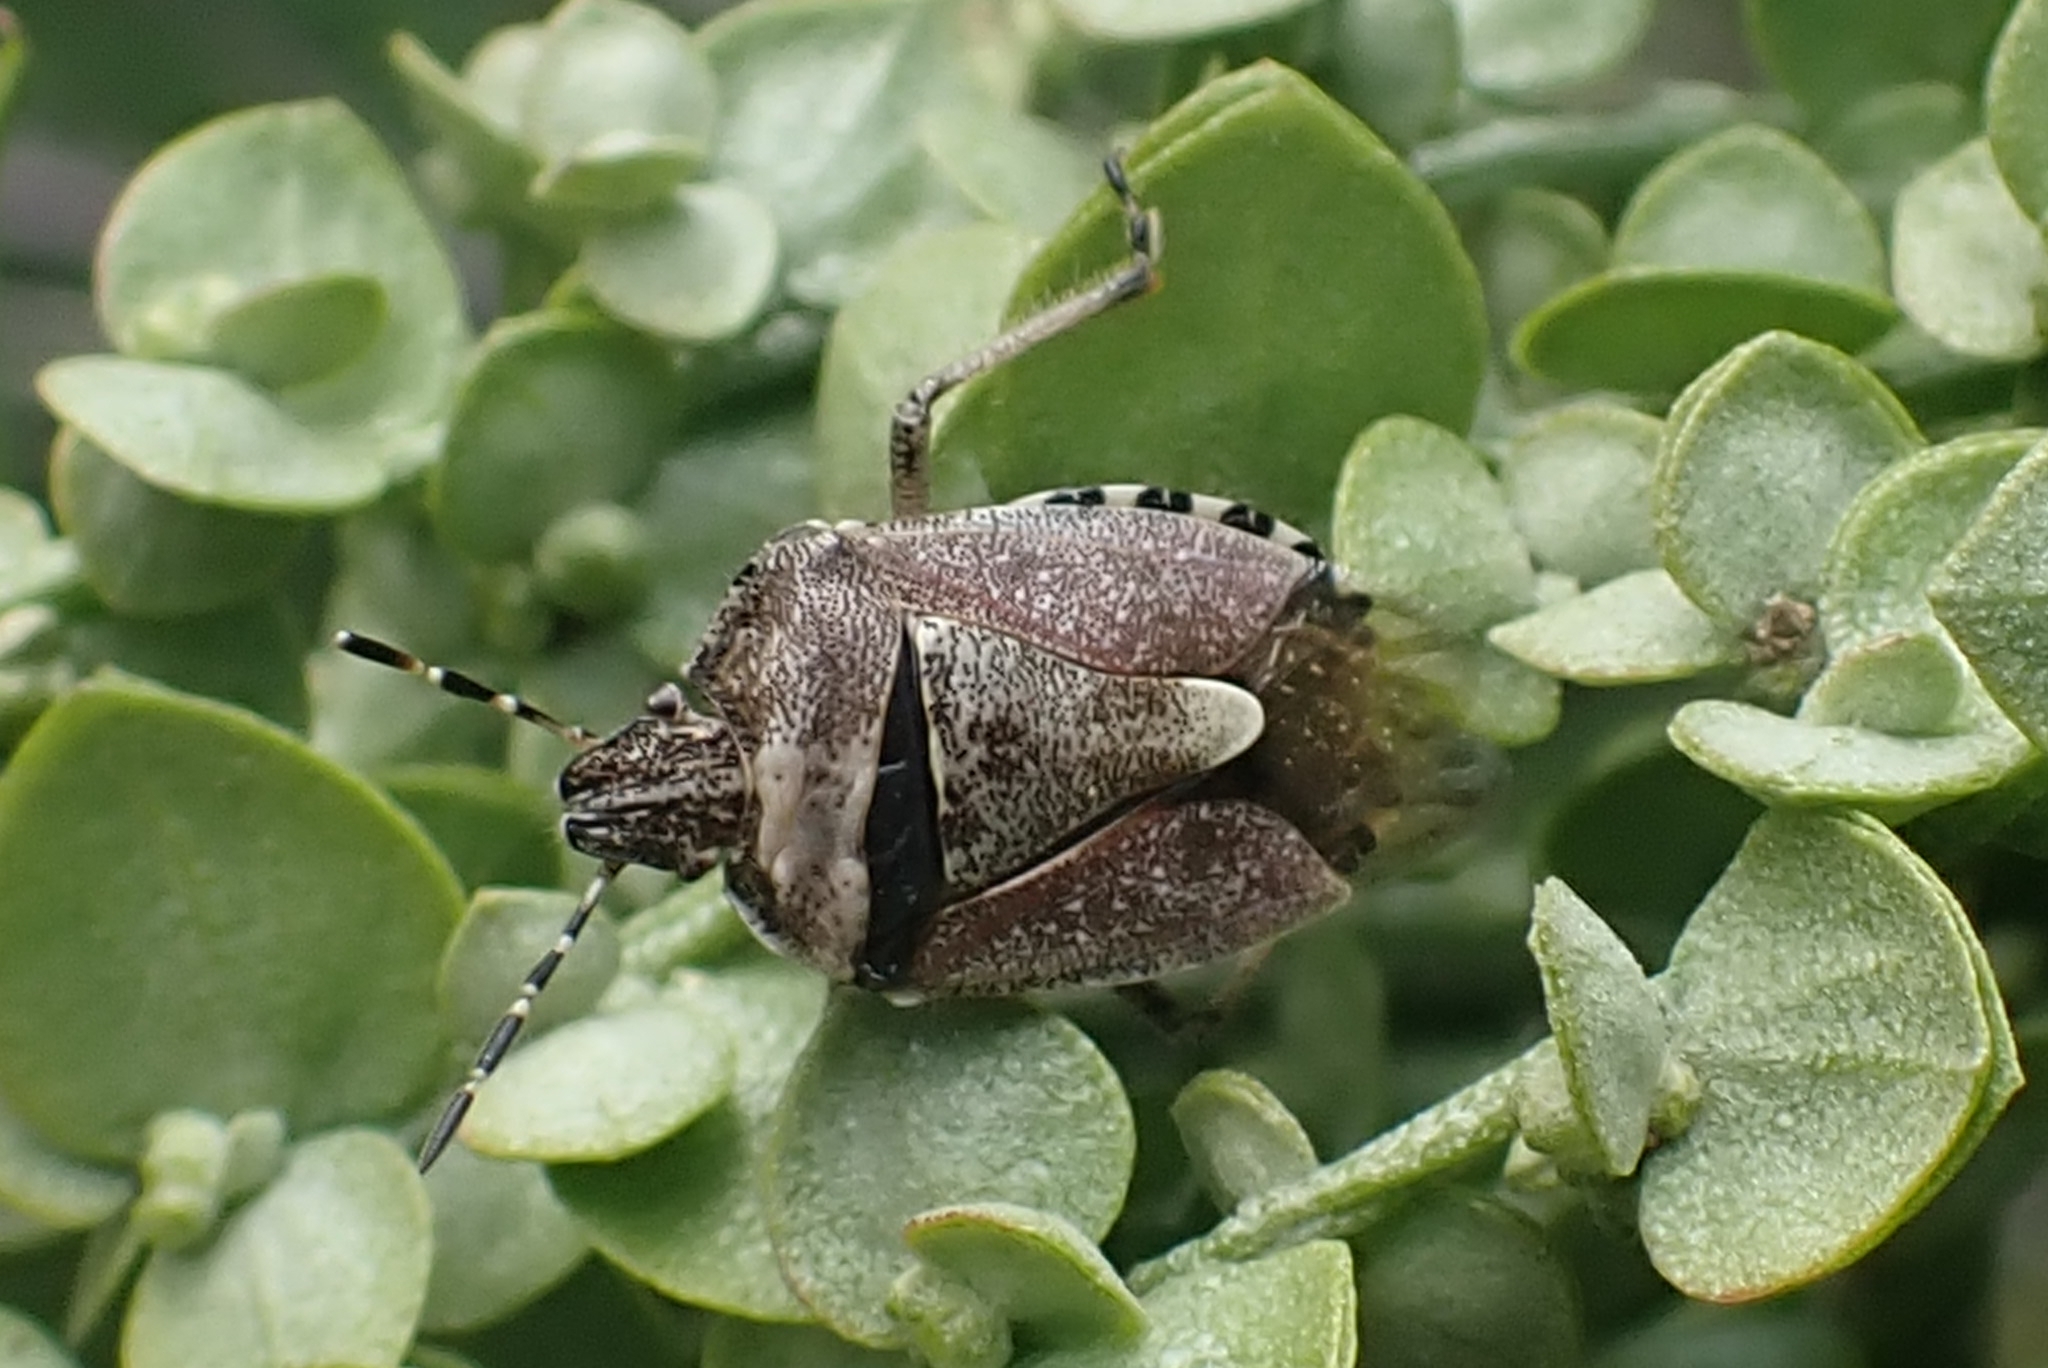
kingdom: Animalia
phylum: Arthropoda
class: Insecta
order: Hemiptera
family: Pentatomidae
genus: Dolycoris
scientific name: Dolycoris baccarum
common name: Sloe bug
